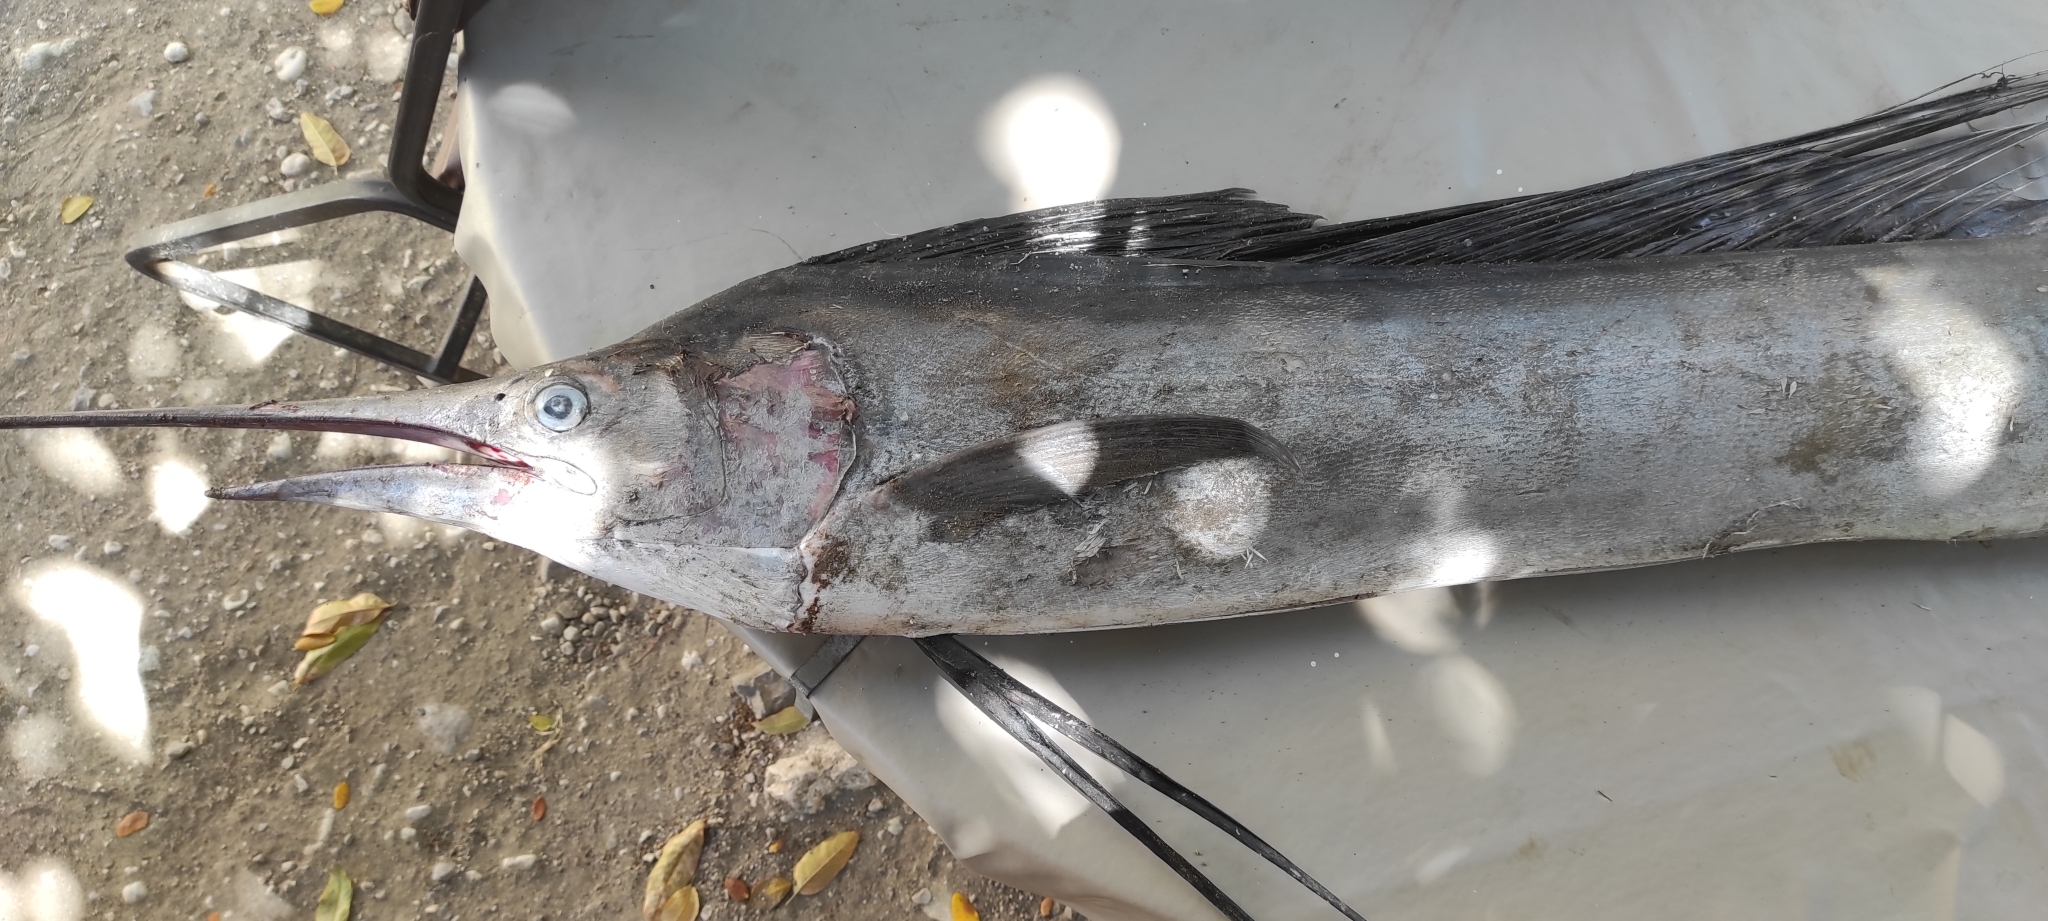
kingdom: Animalia
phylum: Chordata
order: Perciformes
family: Istiophoridae
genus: Makaira
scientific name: Makaira nigricans
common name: Blue marlin
